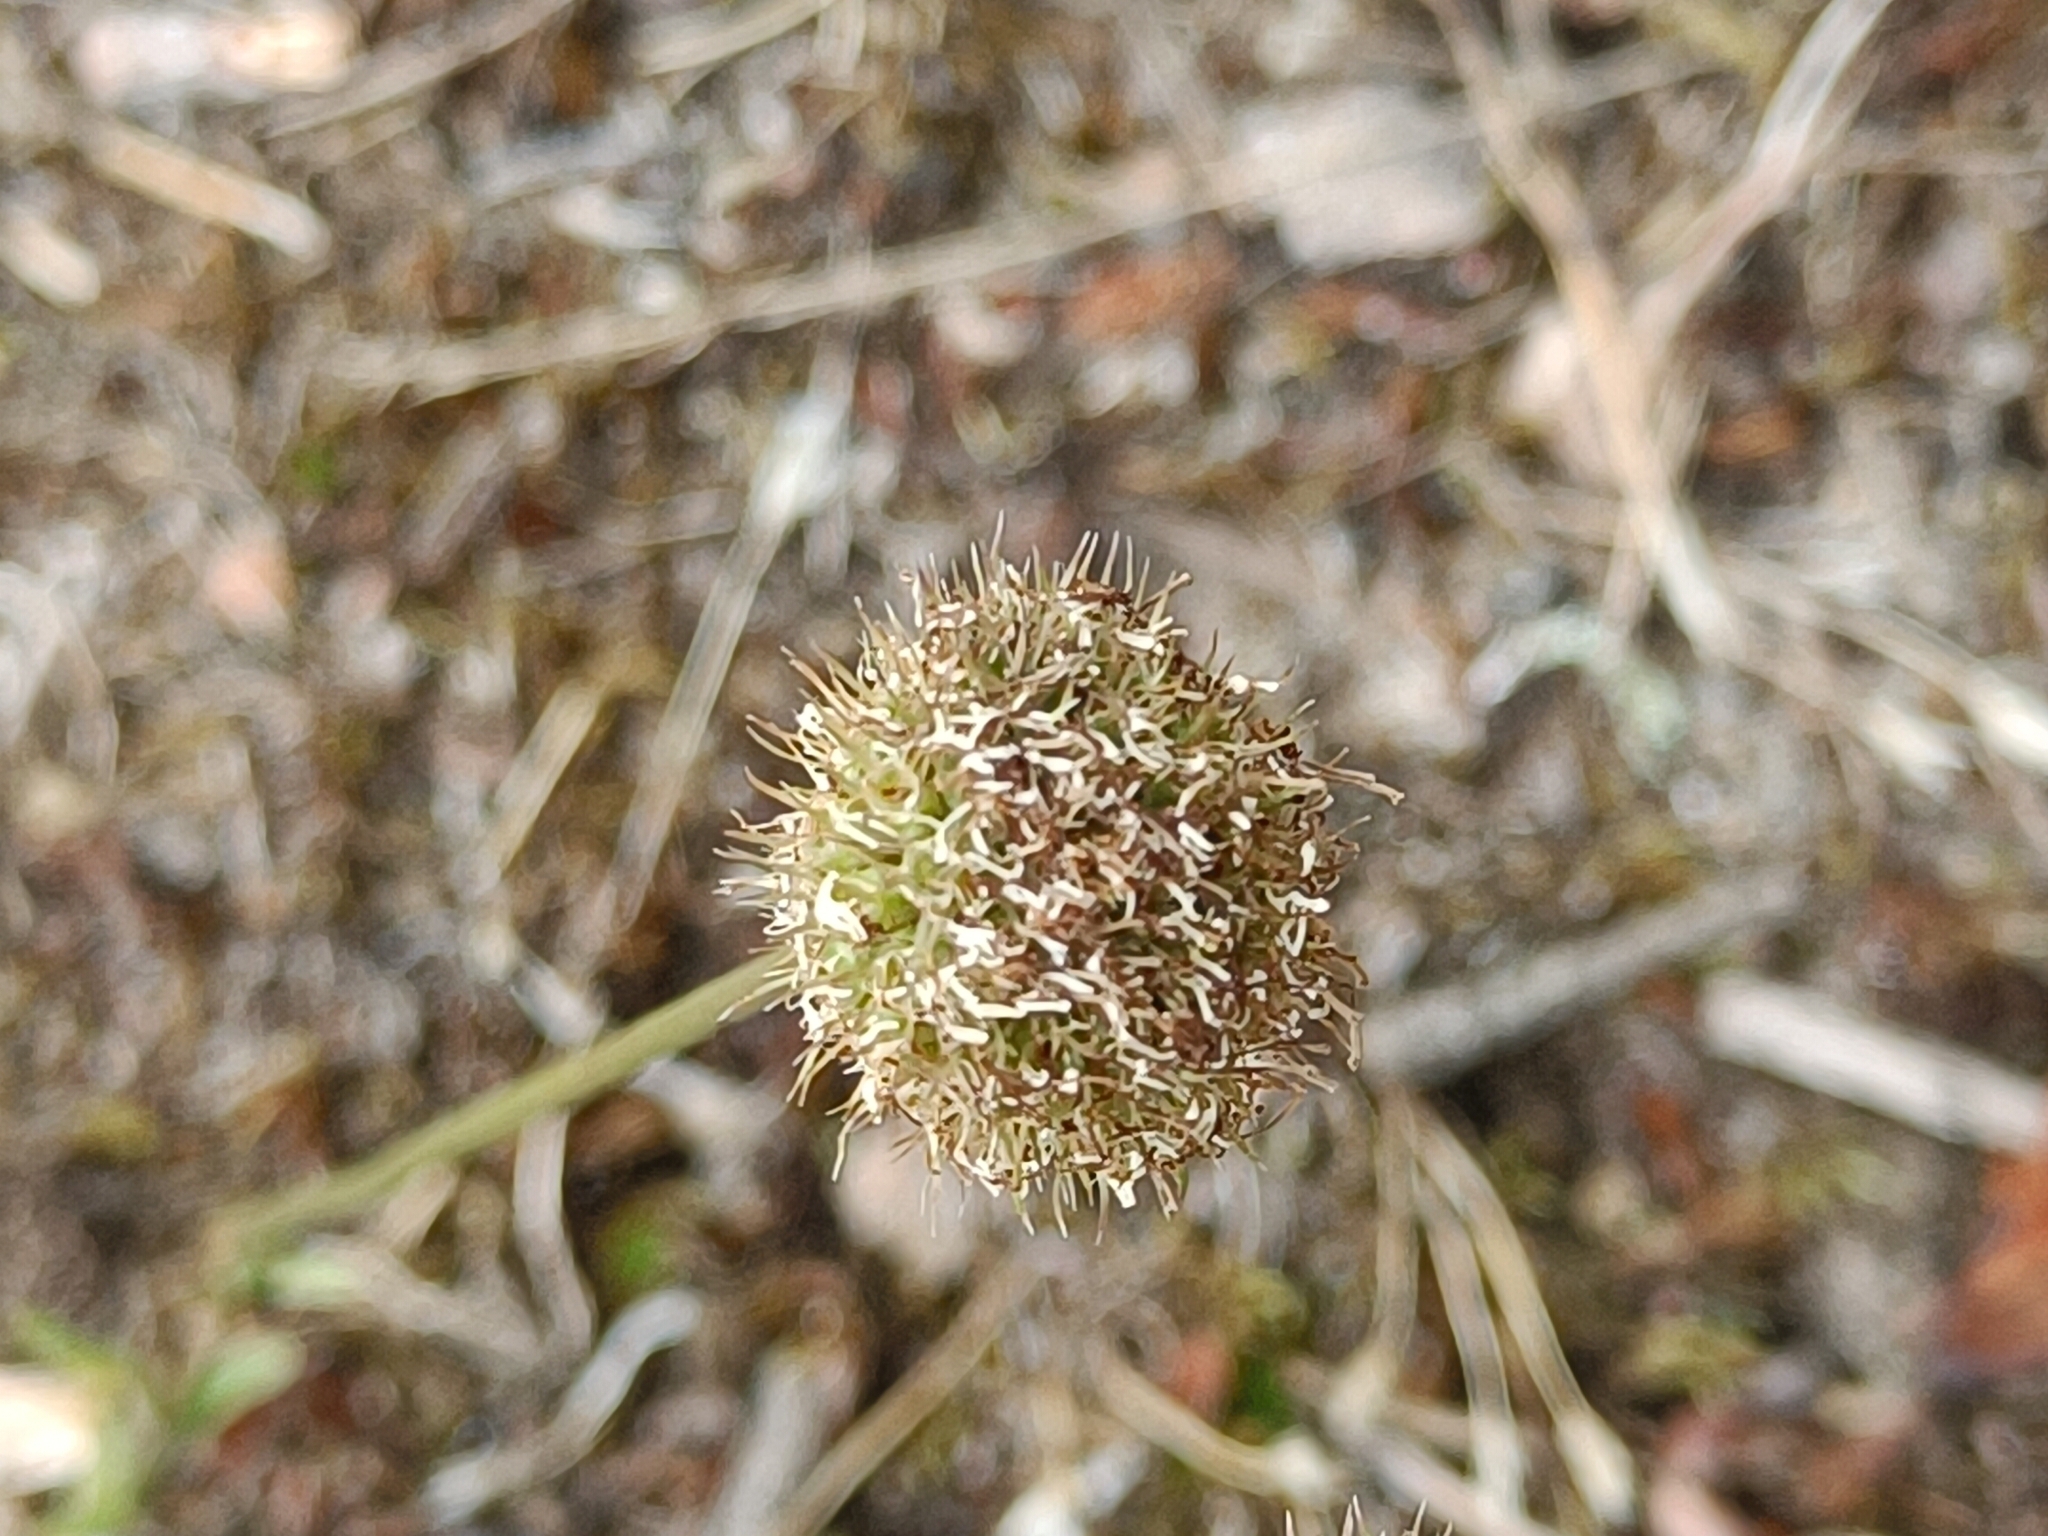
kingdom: Plantae
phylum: Tracheophyta
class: Magnoliopsida
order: Asterales
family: Campanulaceae
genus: Jasione
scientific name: Jasione montana
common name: Sheep's-bit
